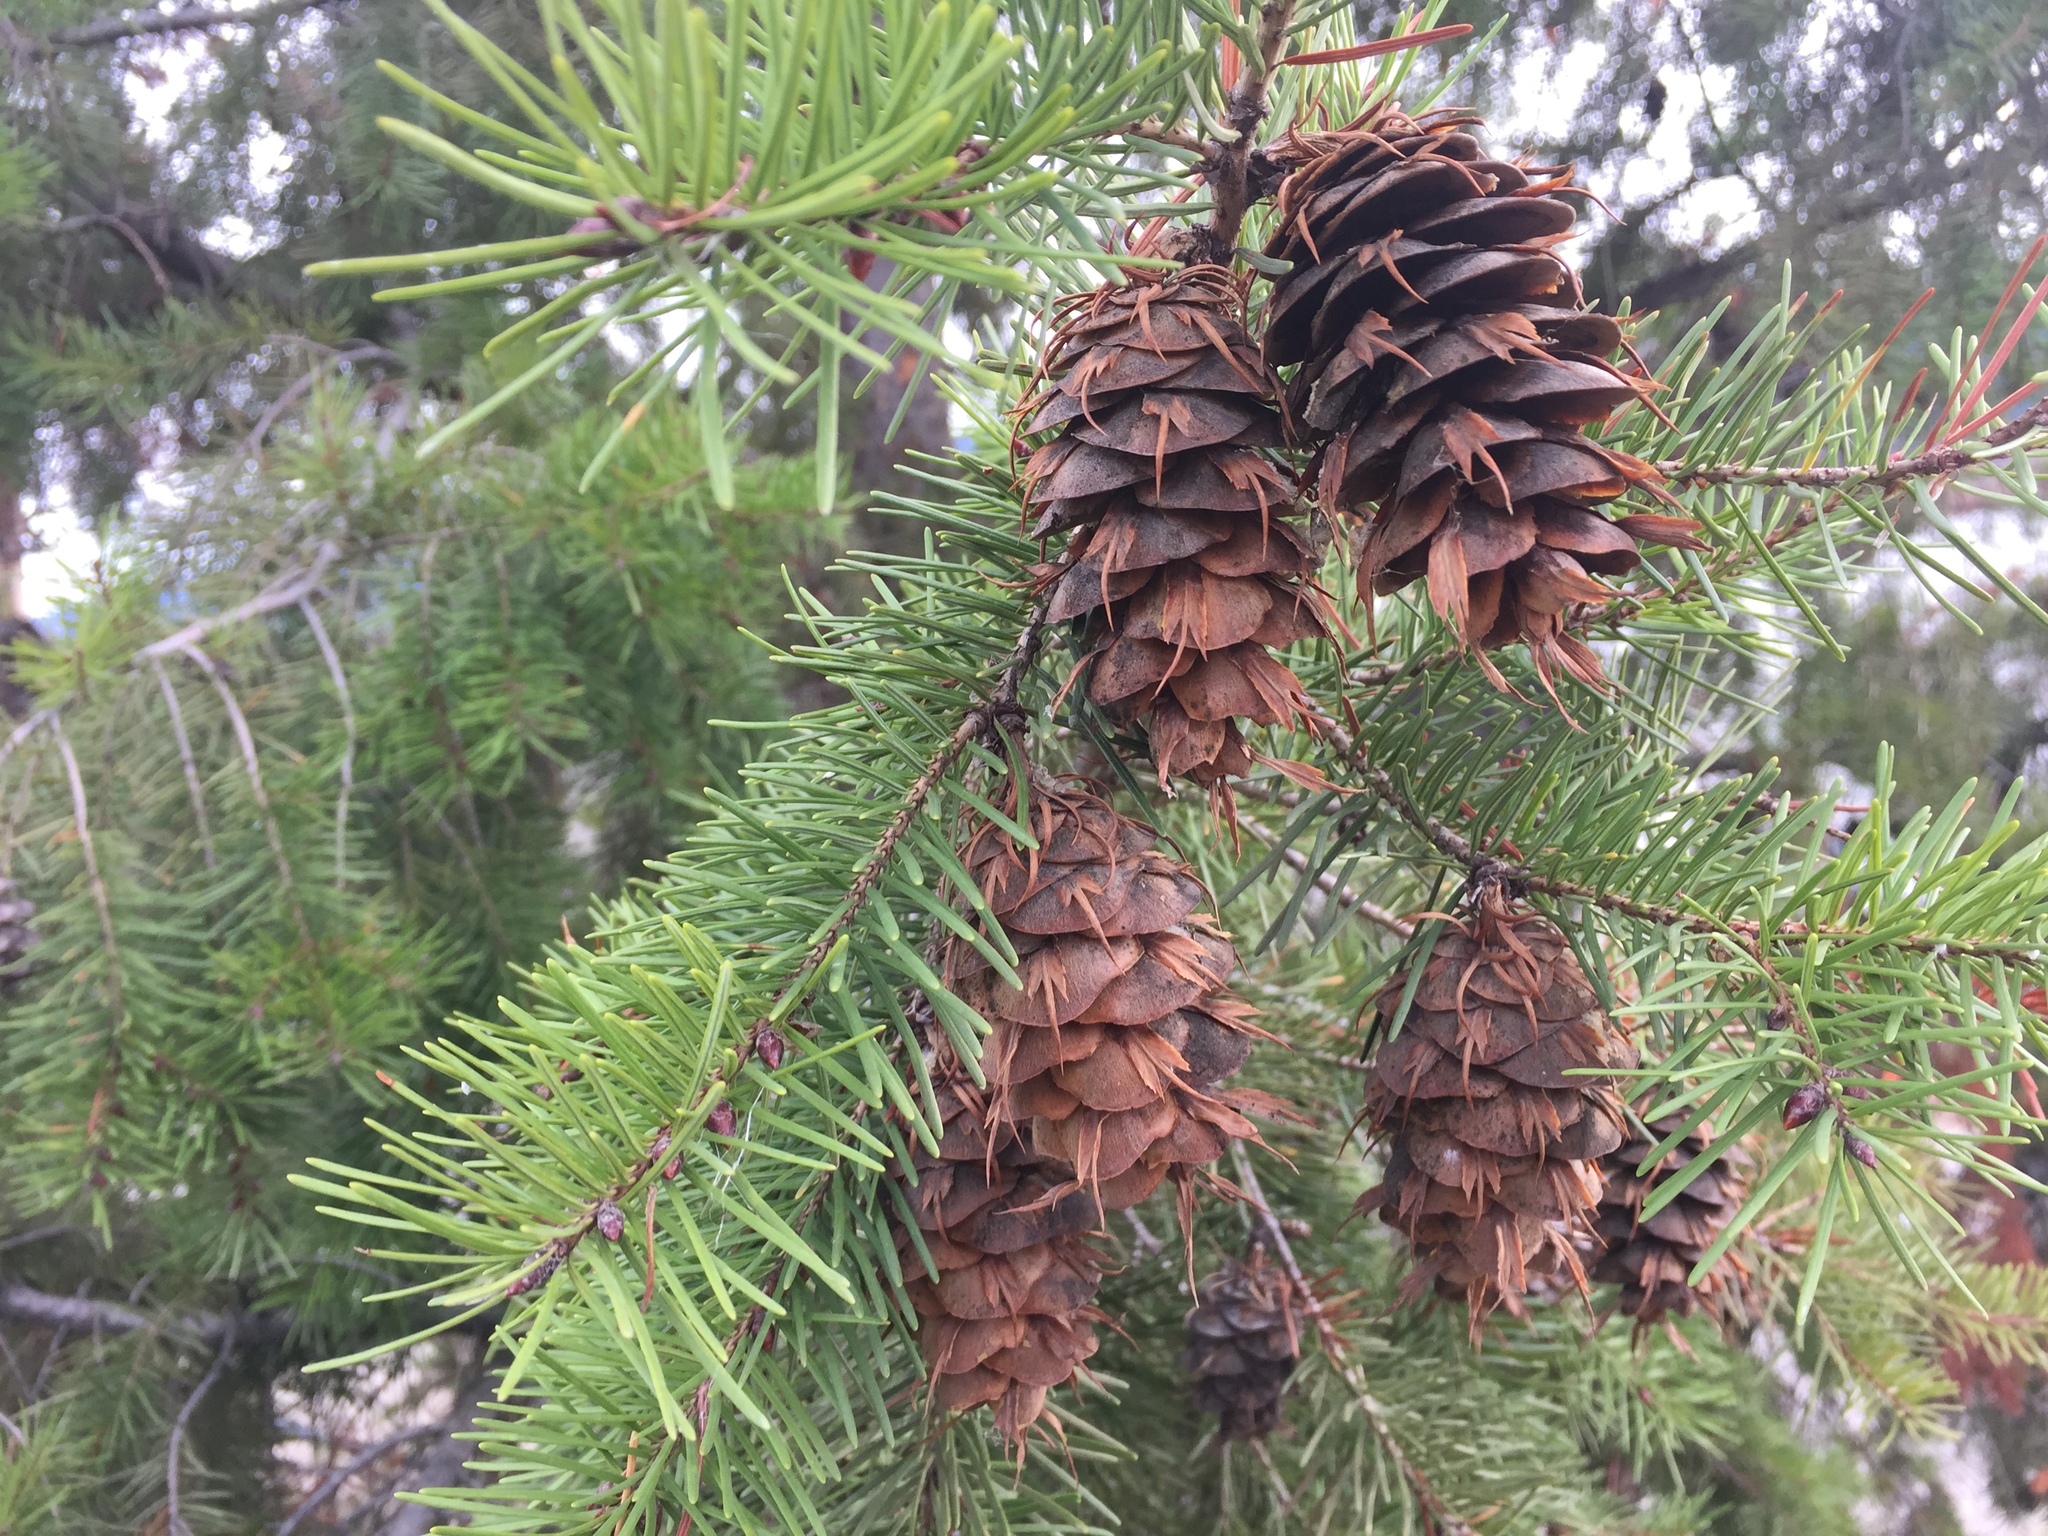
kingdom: Plantae
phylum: Tracheophyta
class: Pinopsida
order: Pinales
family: Pinaceae
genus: Pseudotsuga
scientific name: Pseudotsuga menziesii
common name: Douglas fir
